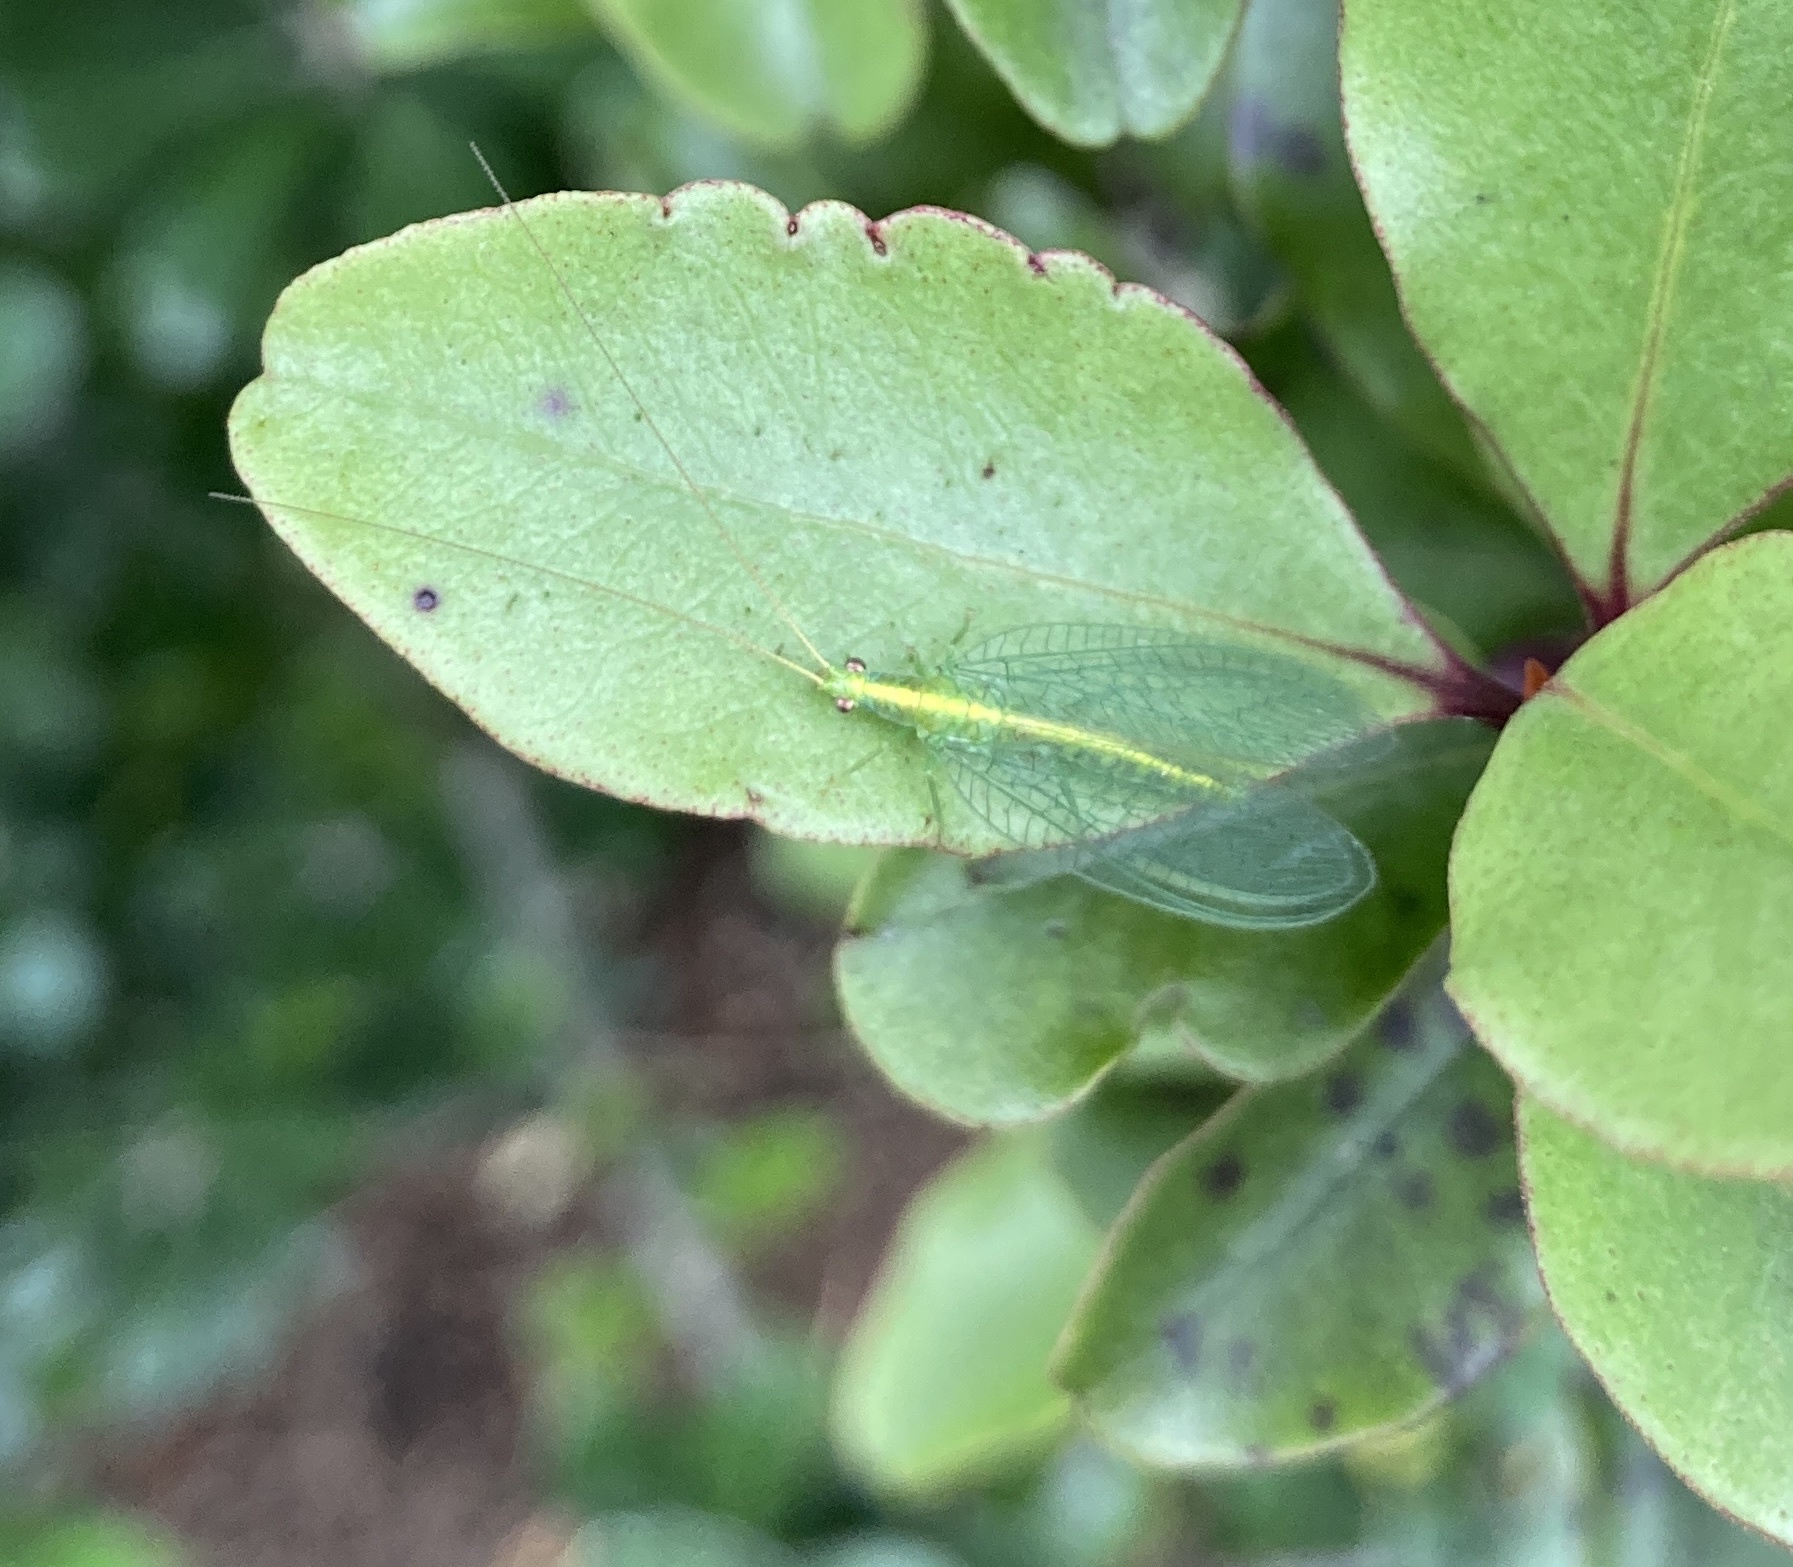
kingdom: Animalia
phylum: Arthropoda
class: Insecta
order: Neuroptera
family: Chrysopidae
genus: Mallada
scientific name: Mallada basalis
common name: Green lacewing
